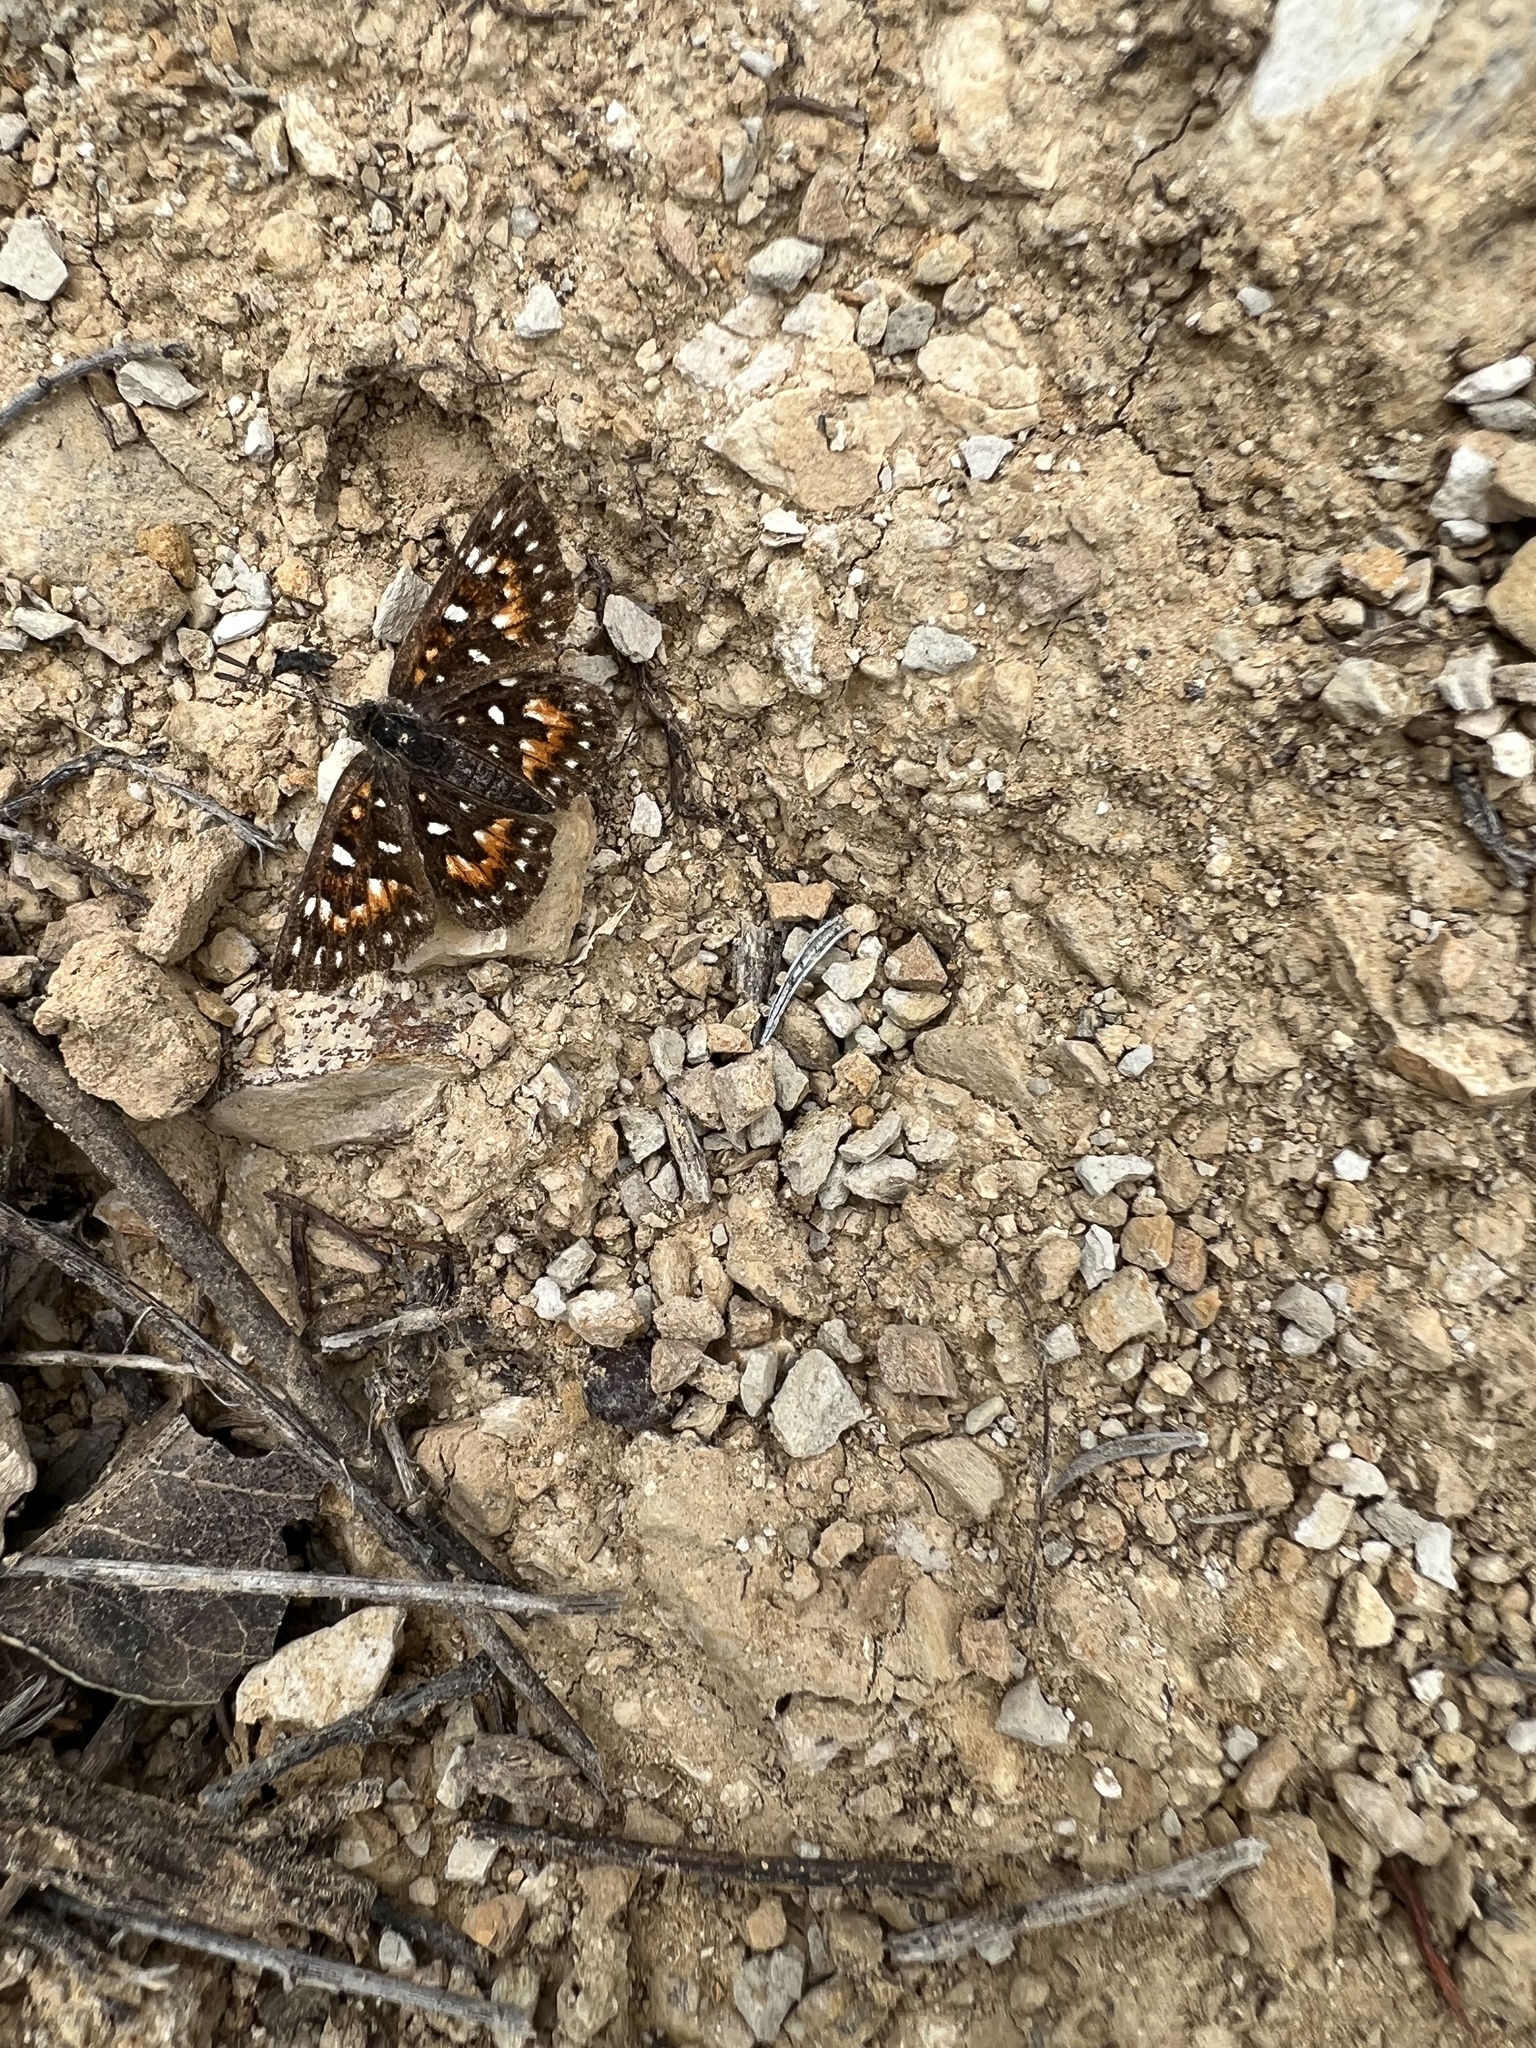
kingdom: Animalia
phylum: Arthropoda
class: Insecta
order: Lepidoptera
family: Riodinidae
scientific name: Riodinidae
